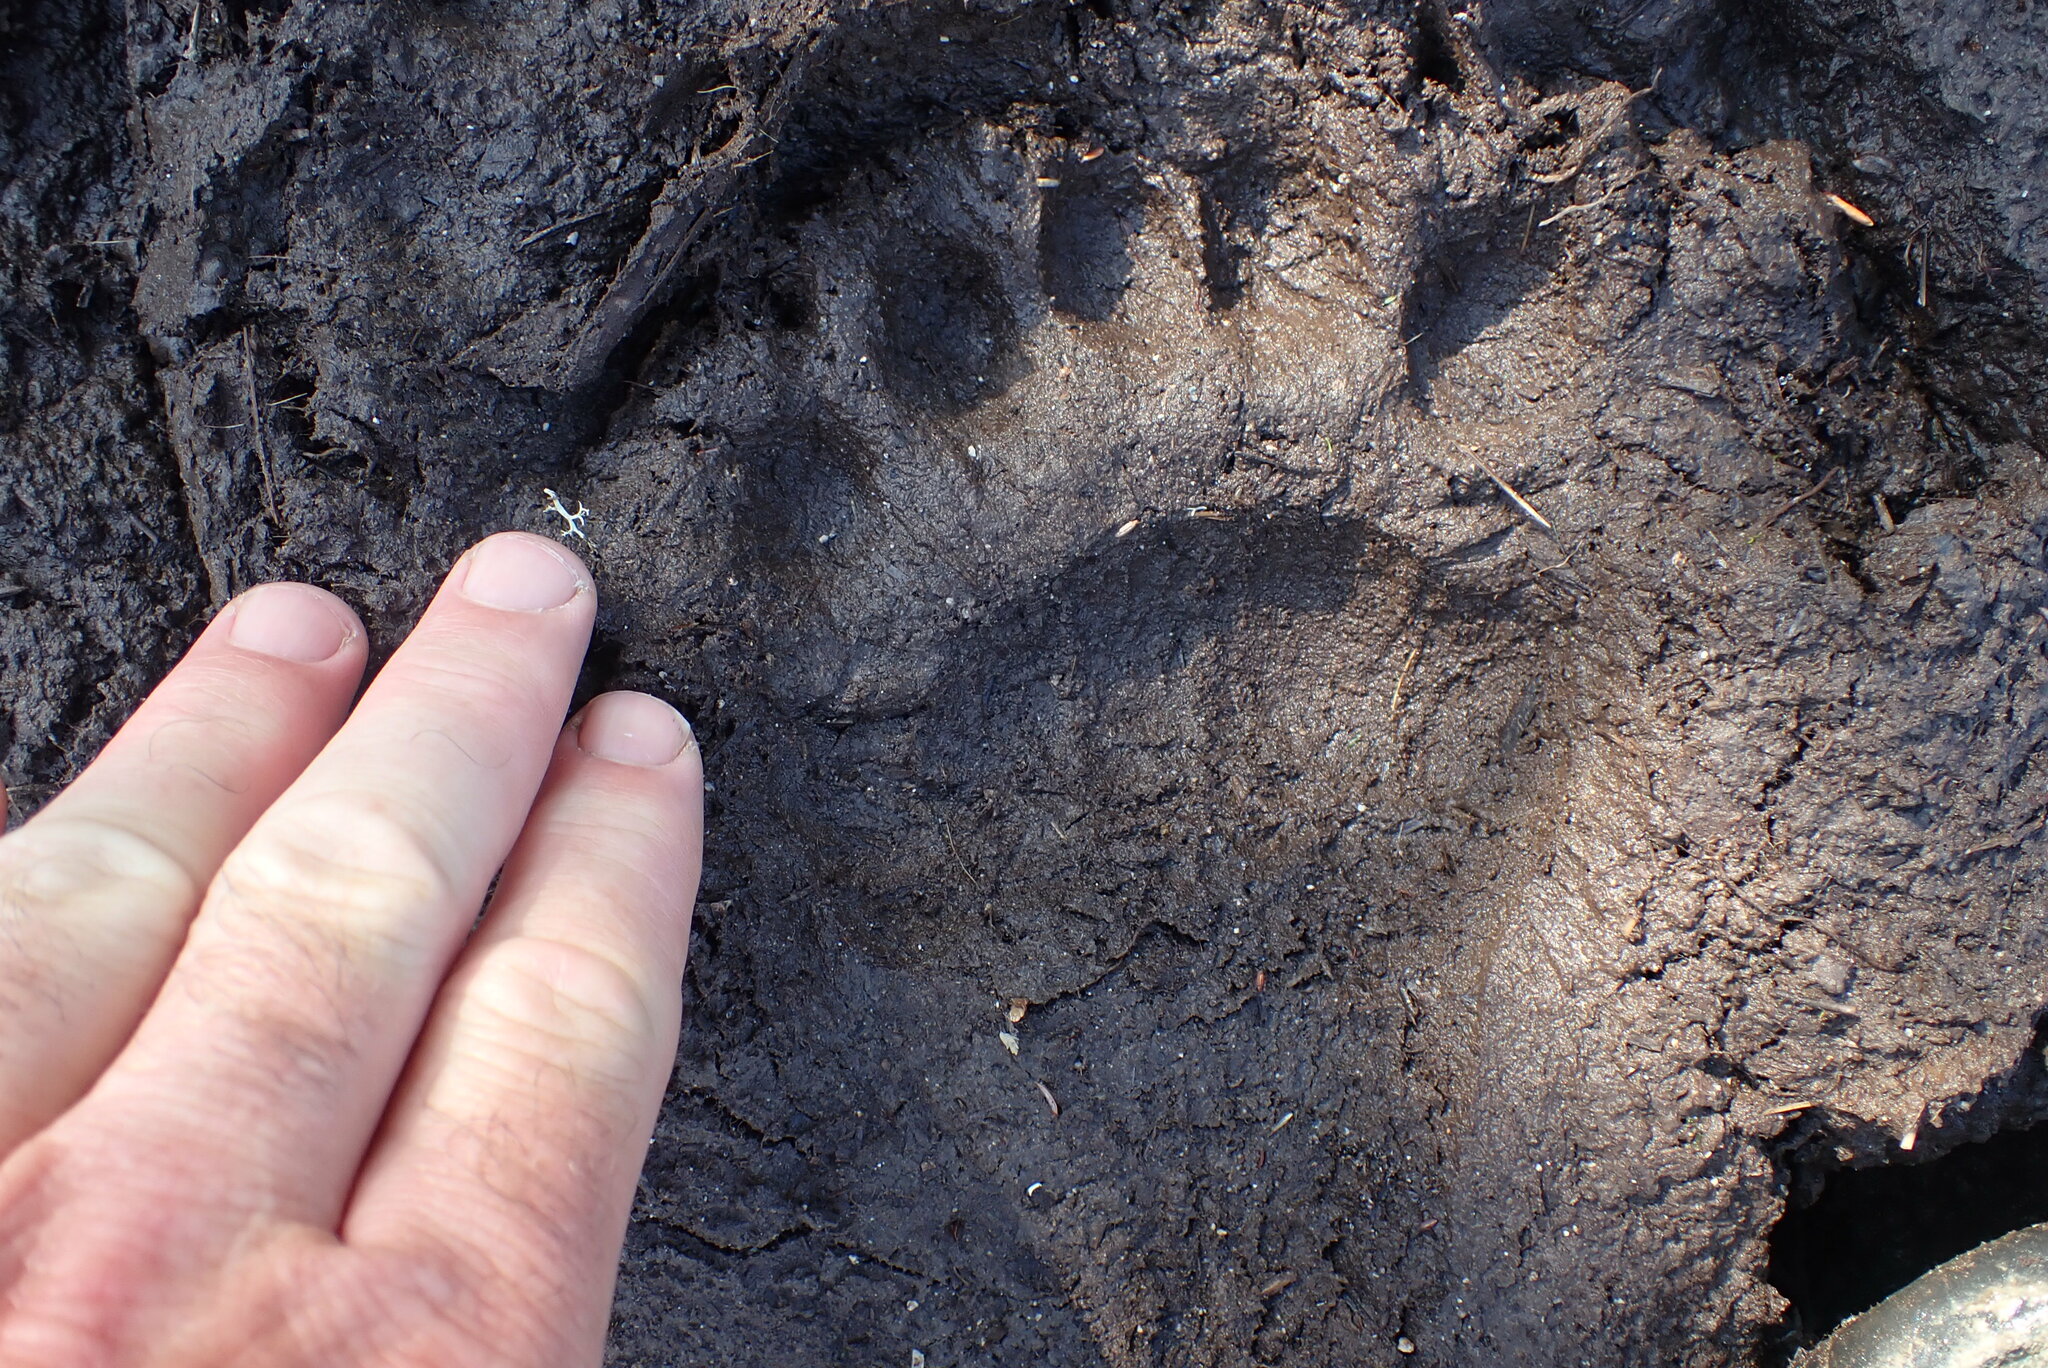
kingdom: Animalia
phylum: Chordata
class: Mammalia
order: Carnivora
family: Ursidae
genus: Ursus
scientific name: Ursus americanus
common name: American black bear
